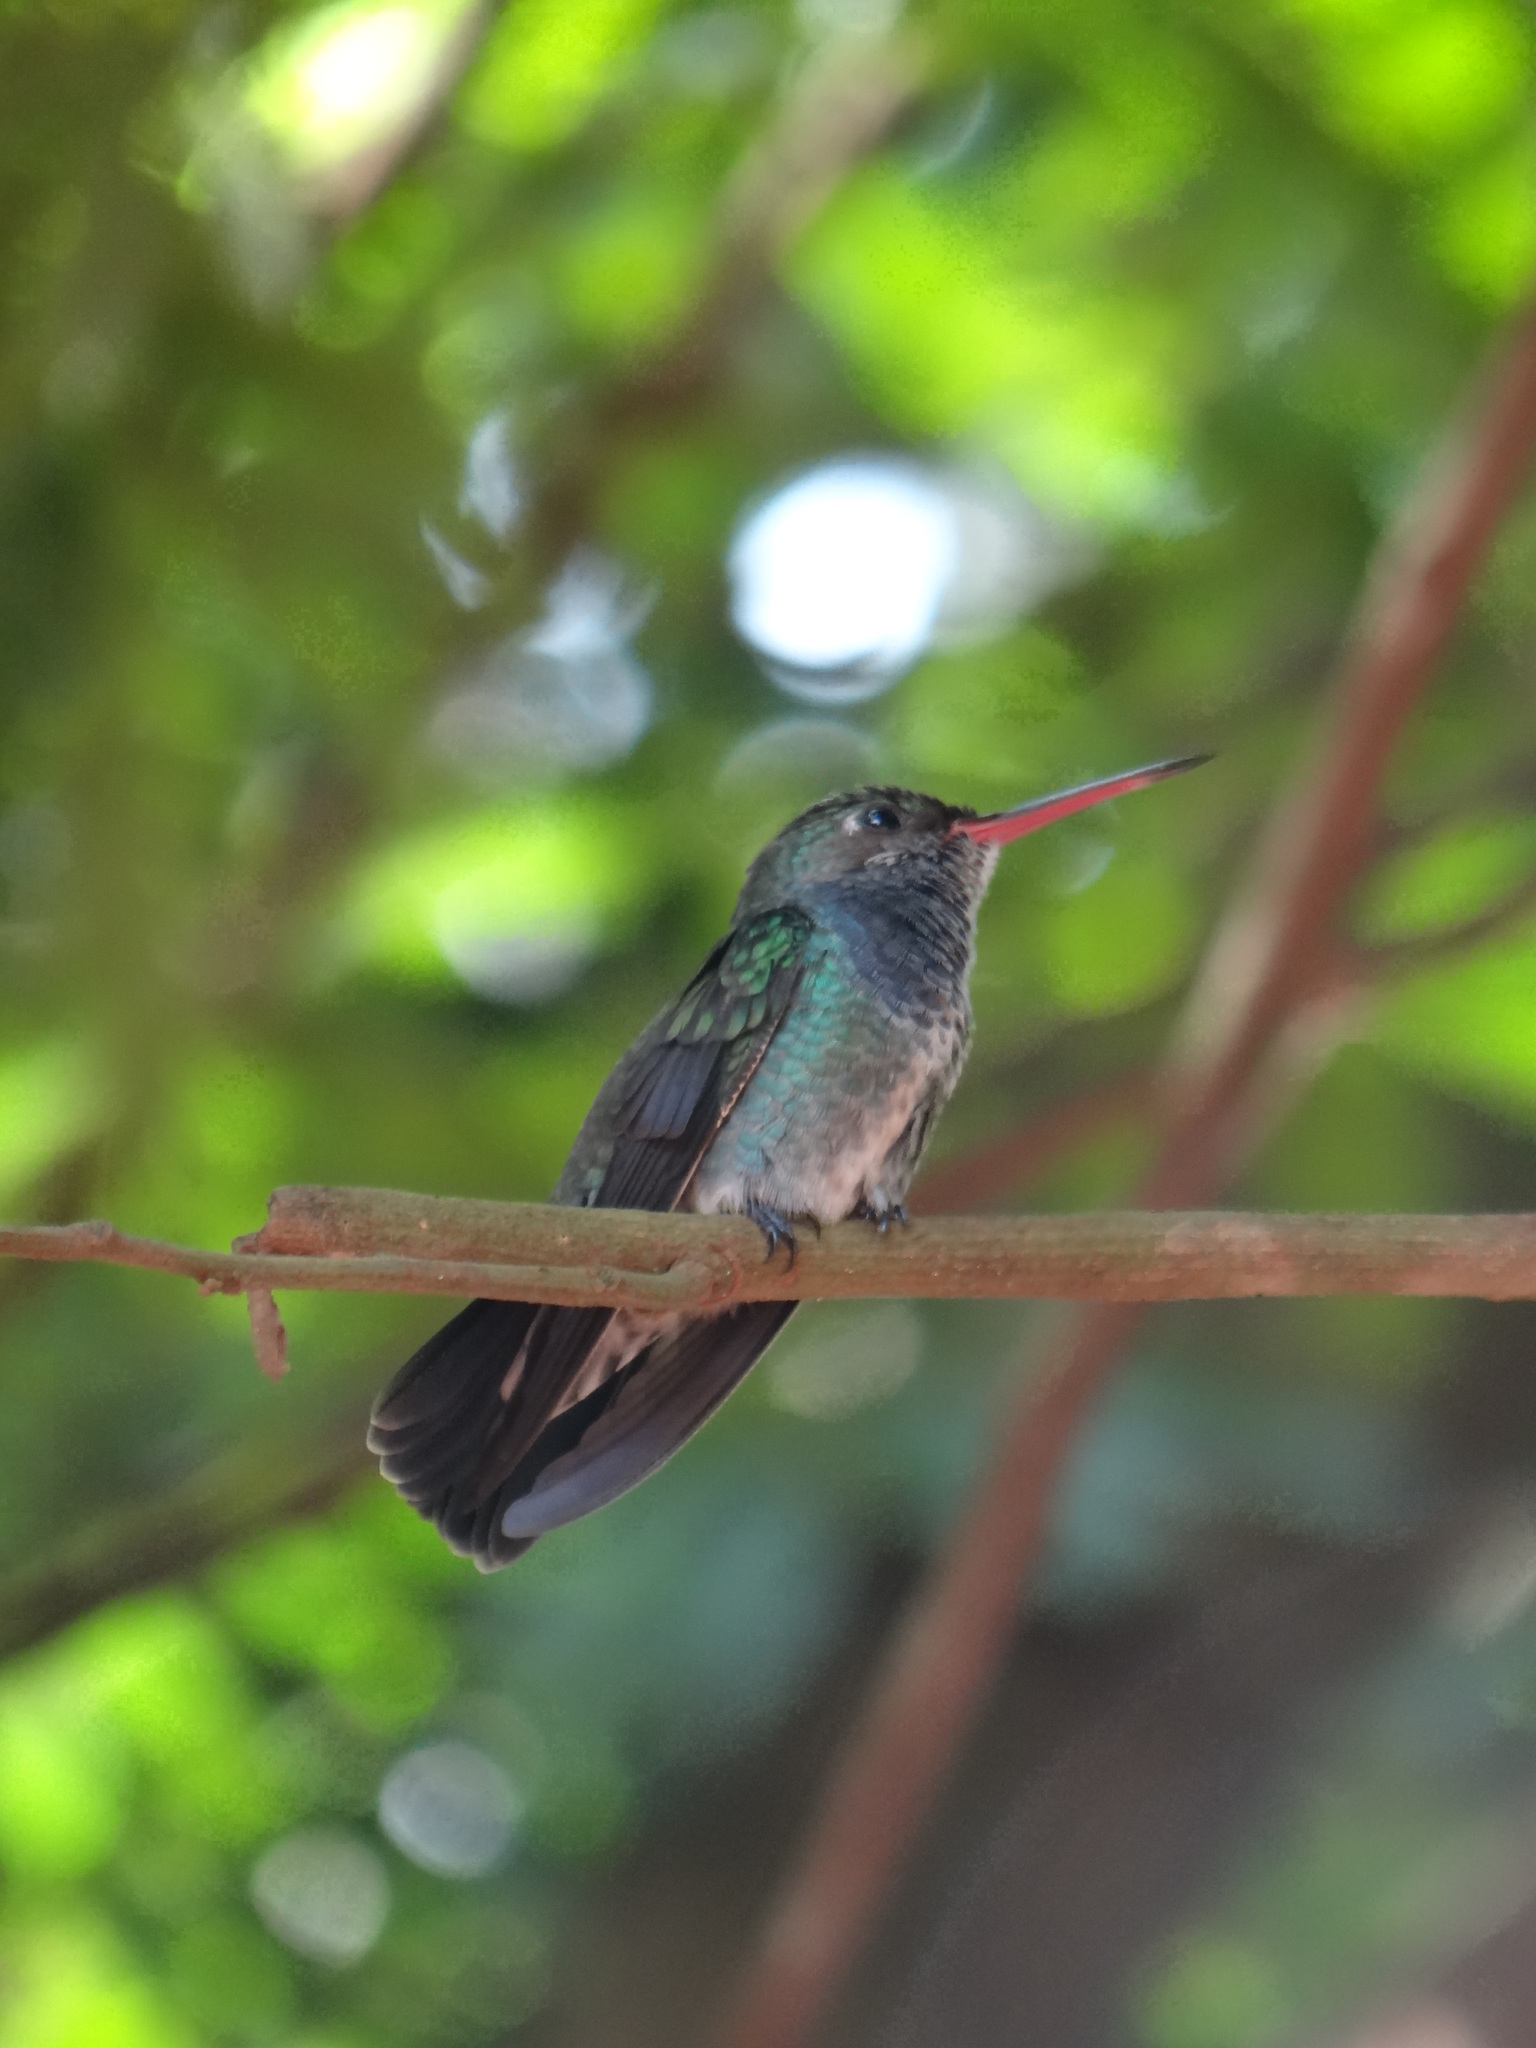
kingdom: Animalia
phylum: Chordata
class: Aves
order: Apodiformes
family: Trochilidae
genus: Chionomesa
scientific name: Chionomesa lactea
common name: Sapphire-spangled emerald
